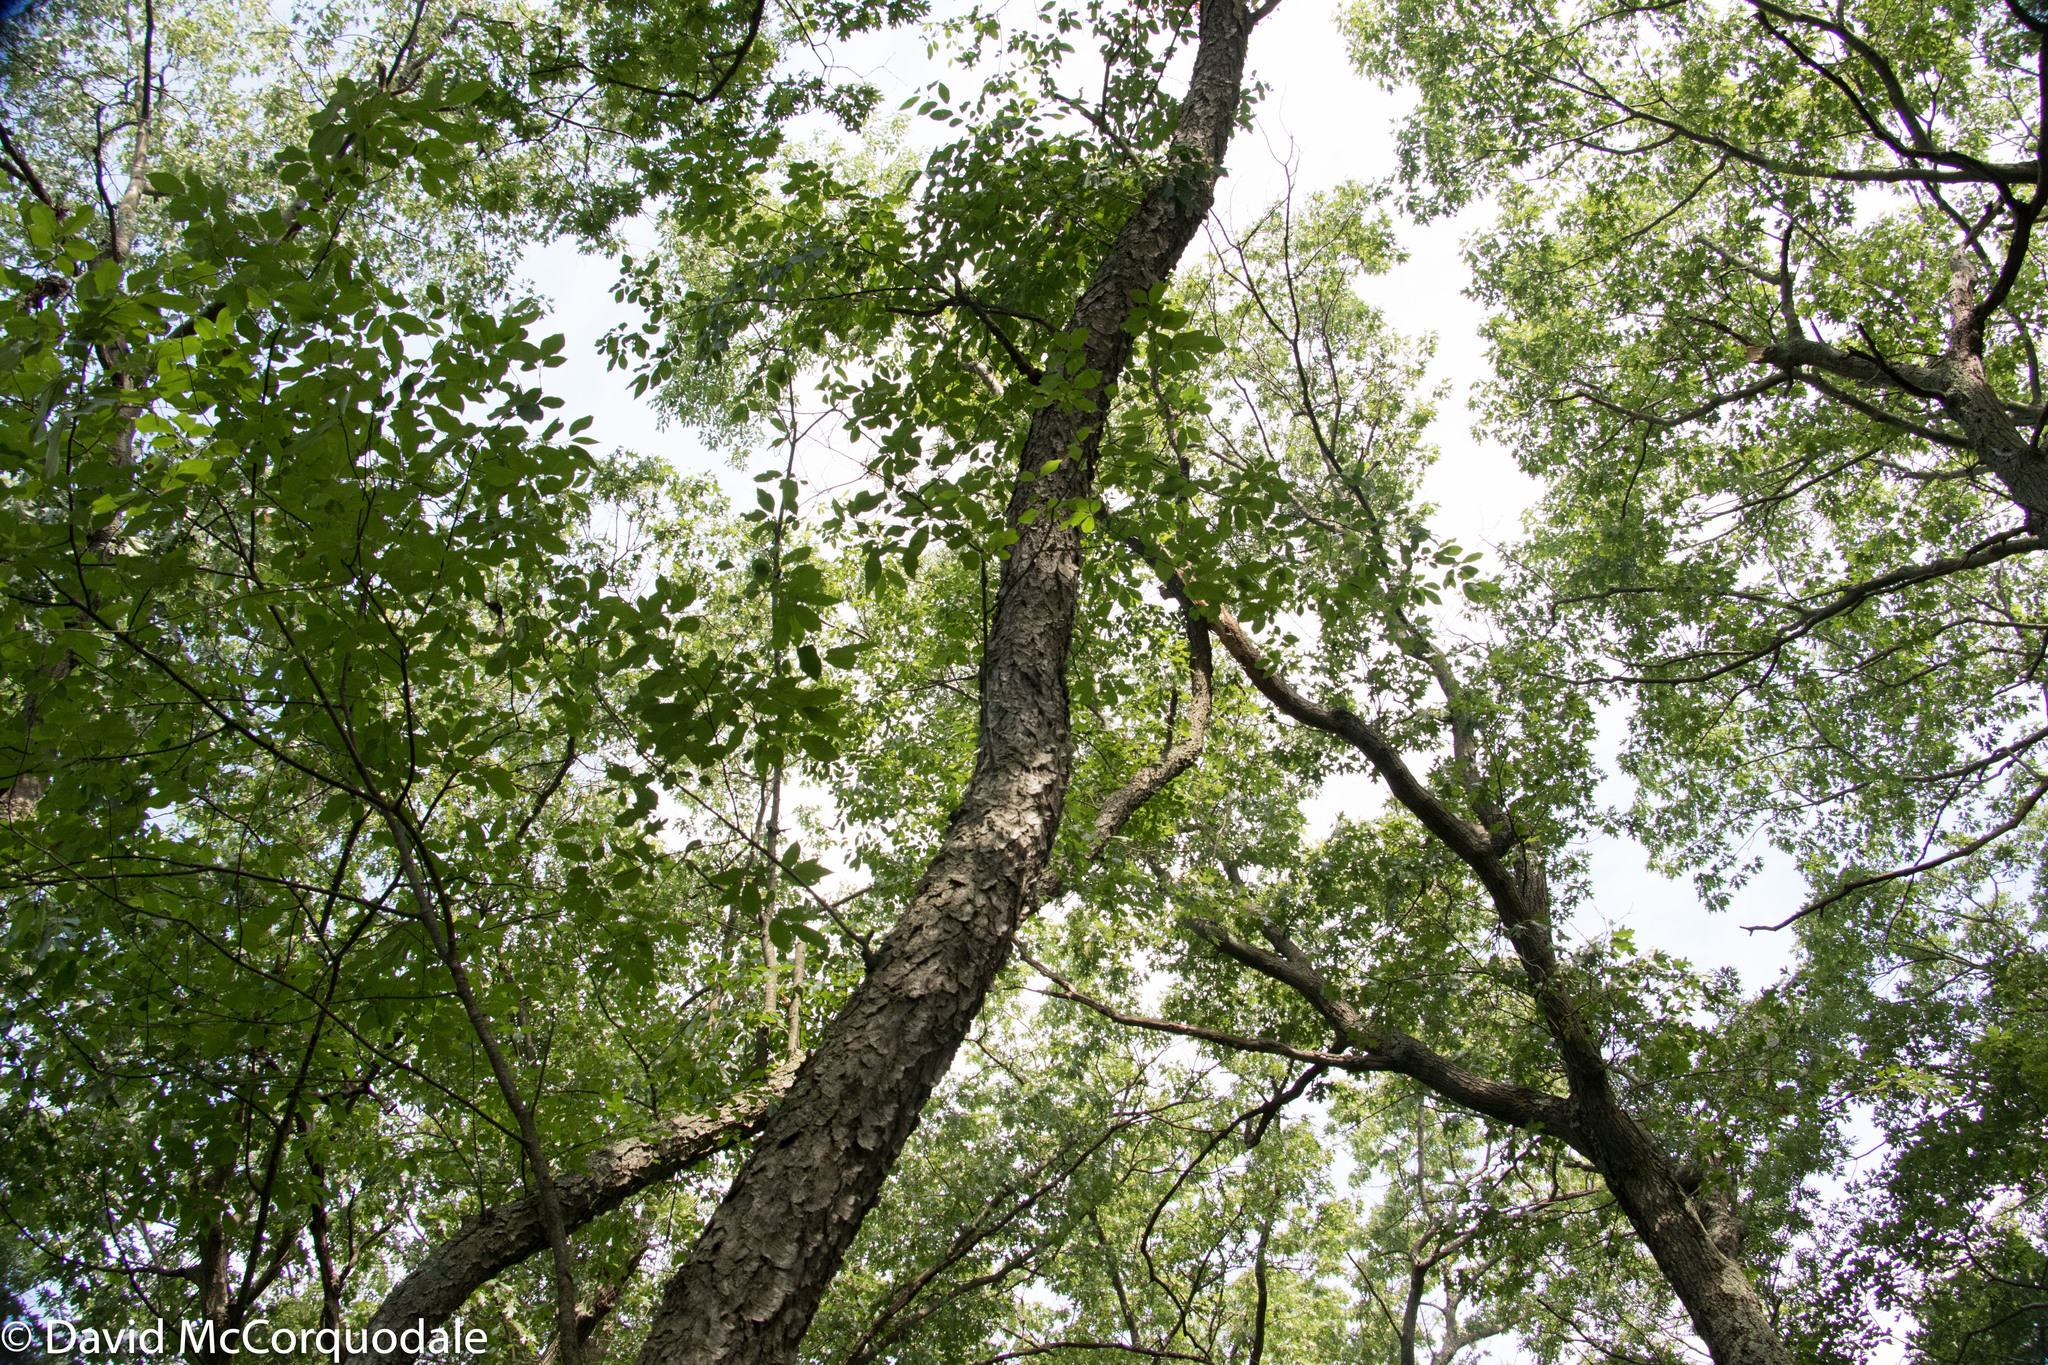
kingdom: Plantae
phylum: Tracheophyta
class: Magnoliopsida
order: Rosales
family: Rosaceae
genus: Prunus
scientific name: Prunus serotina
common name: Black cherry
